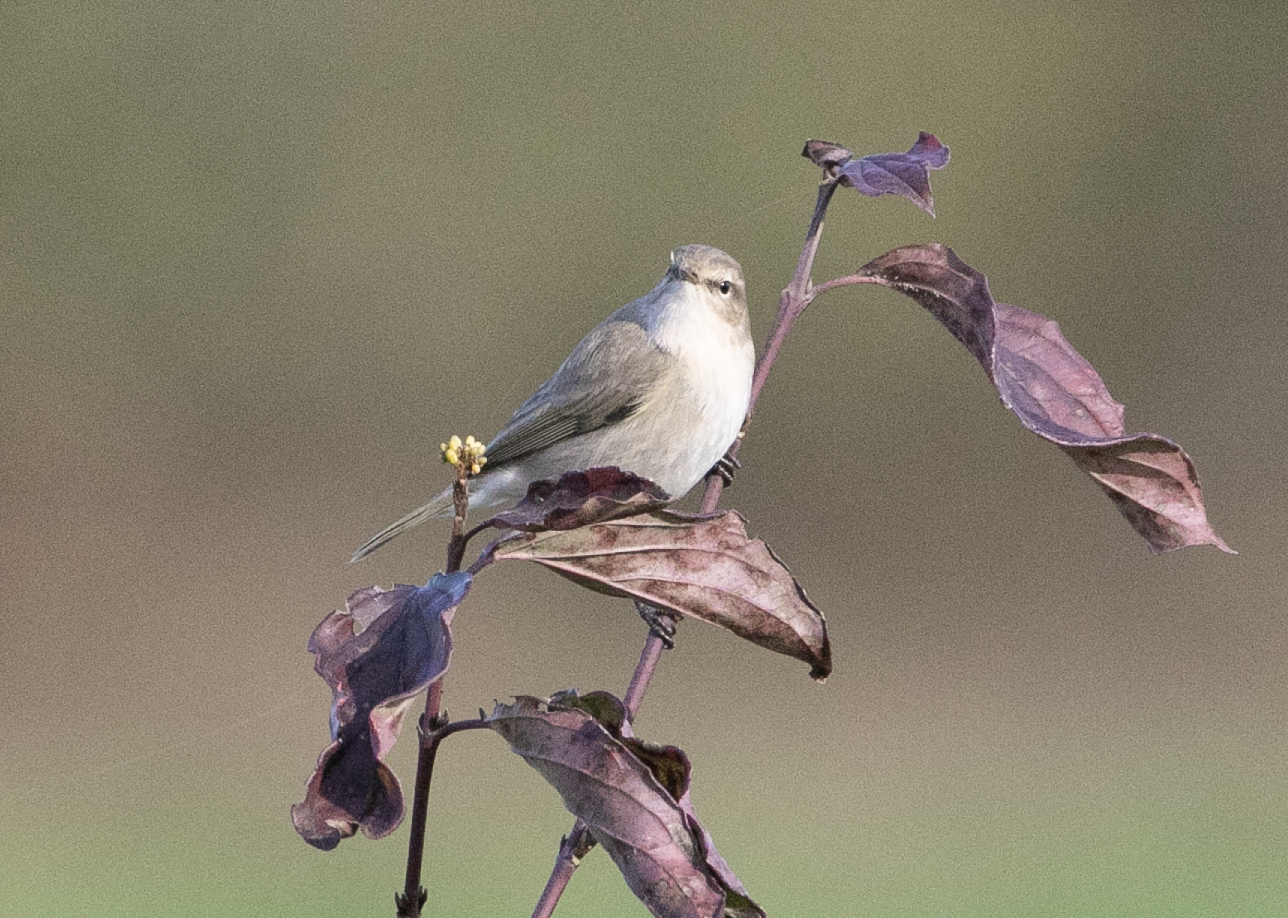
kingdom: Animalia
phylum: Chordata
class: Aves
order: Passeriformes
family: Phylloscopidae
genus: Phylloscopus
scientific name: Phylloscopus collybita
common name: Common chiffchaff
